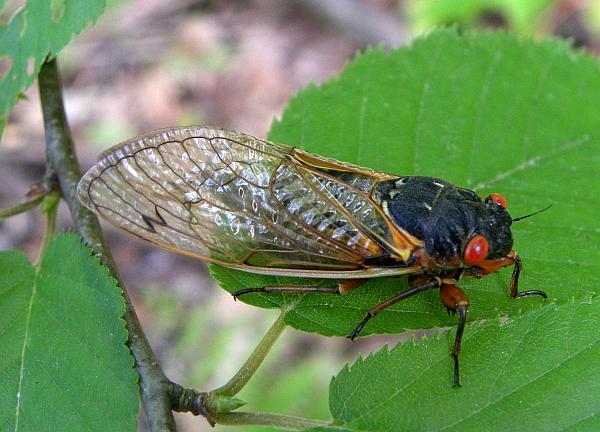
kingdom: Animalia
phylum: Arthropoda
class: Insecta
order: Hemiptera
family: Cicadidae
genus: Magicicada
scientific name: Magicicada septendecim
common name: Periodical cicada
